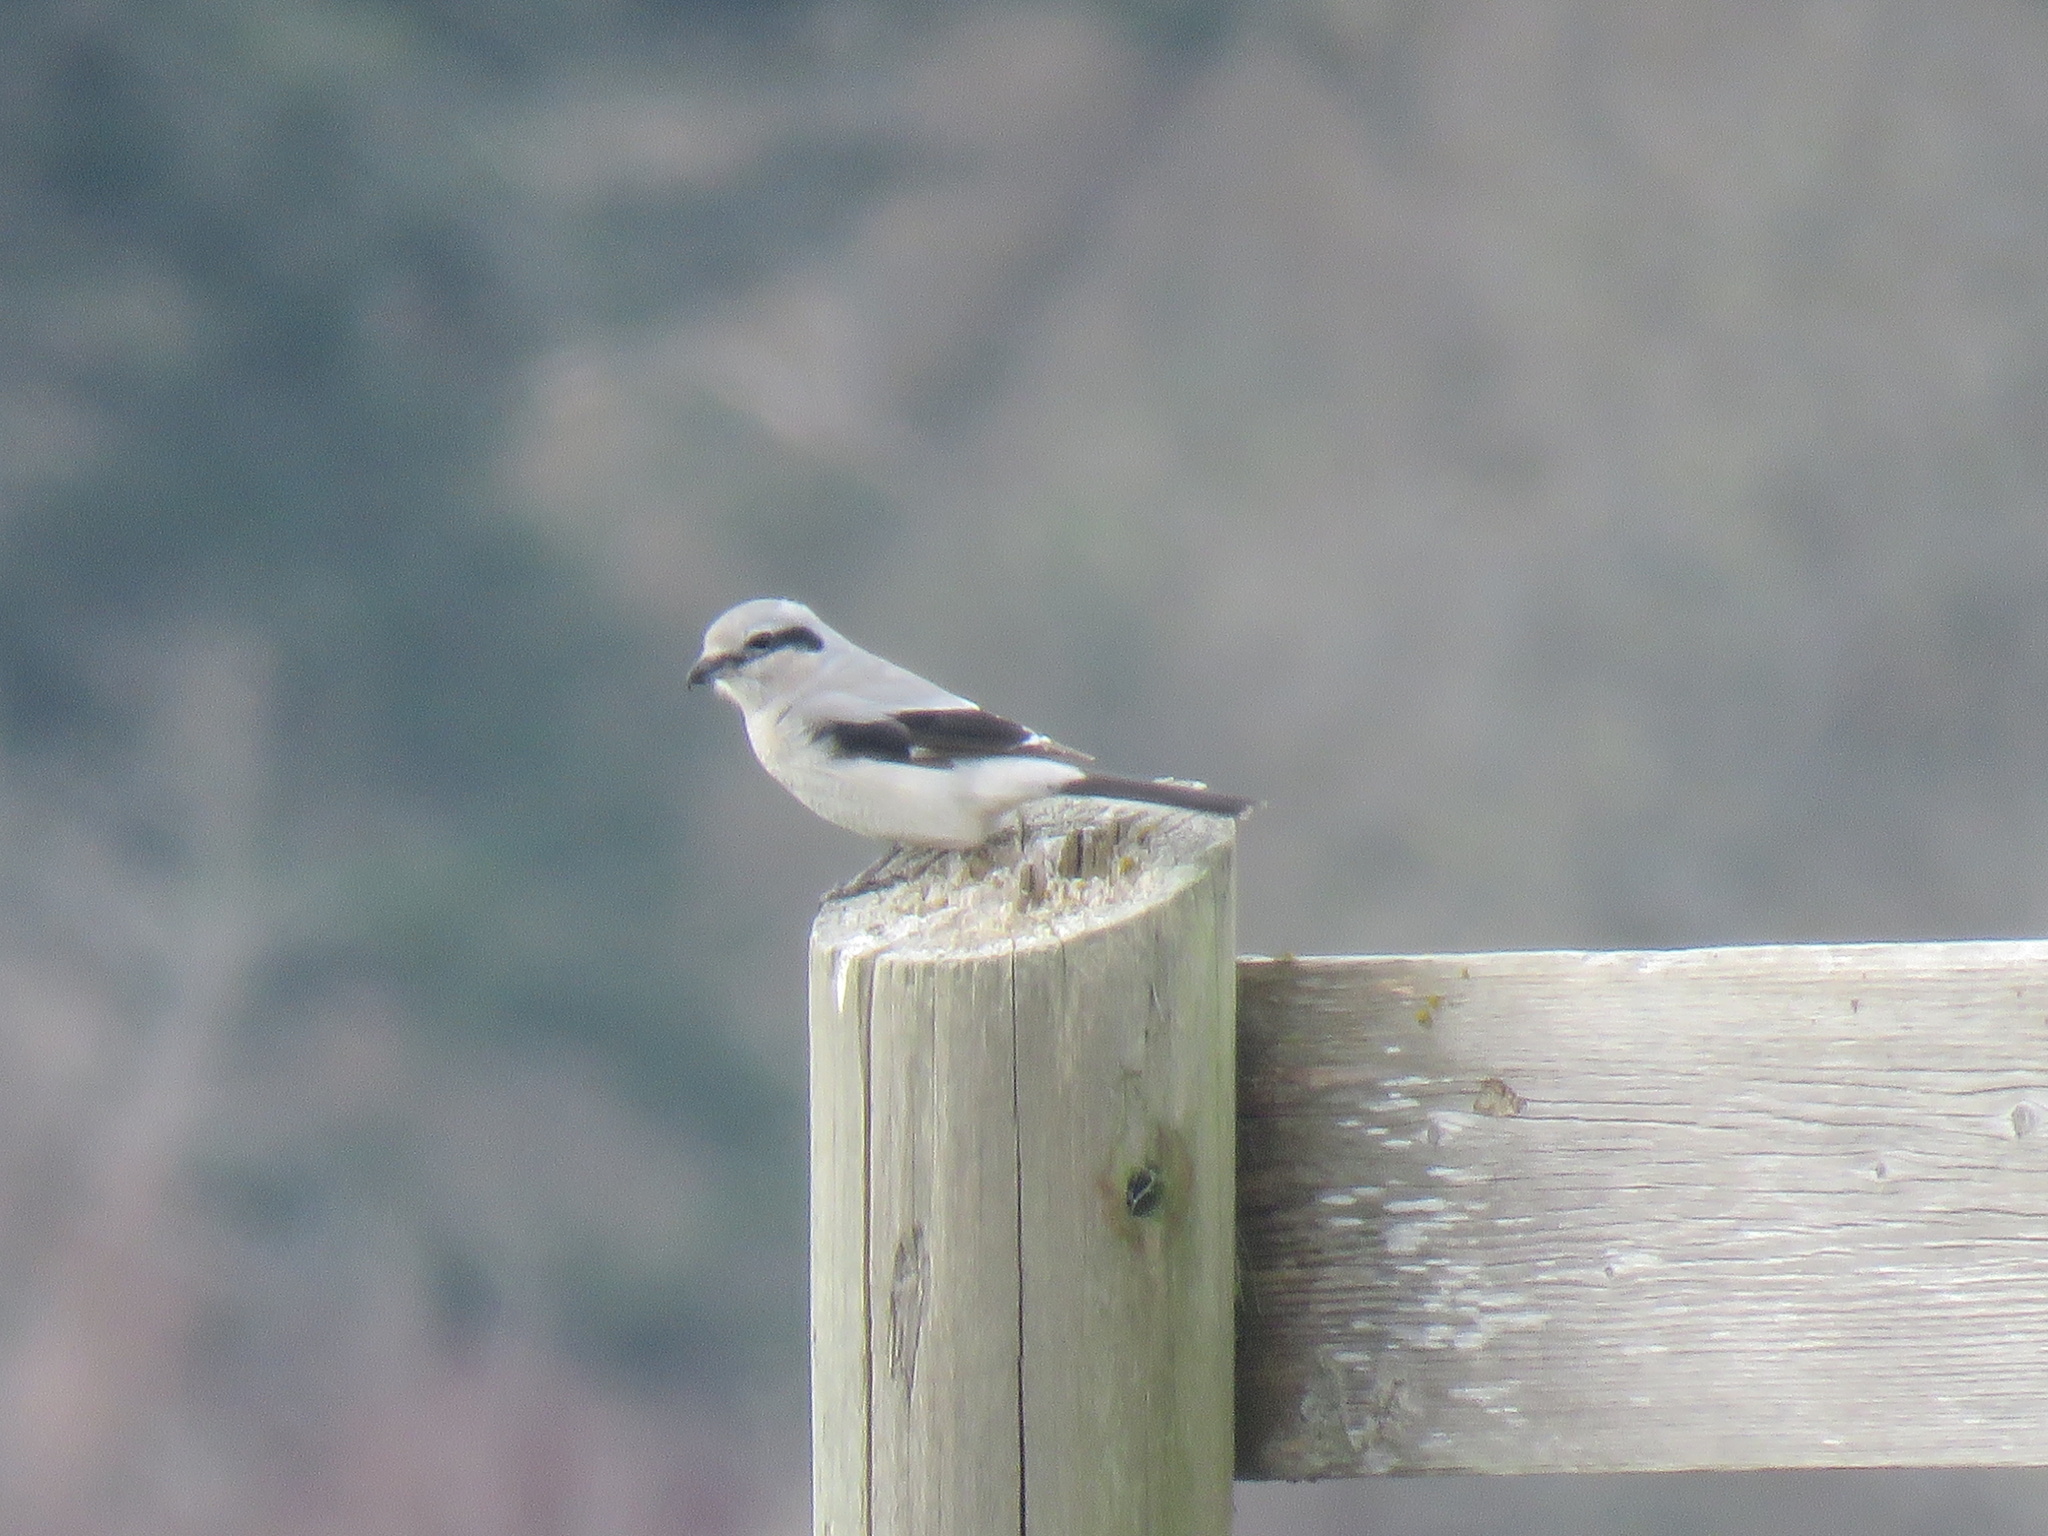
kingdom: Animalia
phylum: Chordata
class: Aves
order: Passeriformes
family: Laniidae
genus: Lanius
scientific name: Lanius borealis
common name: Northern shrike
